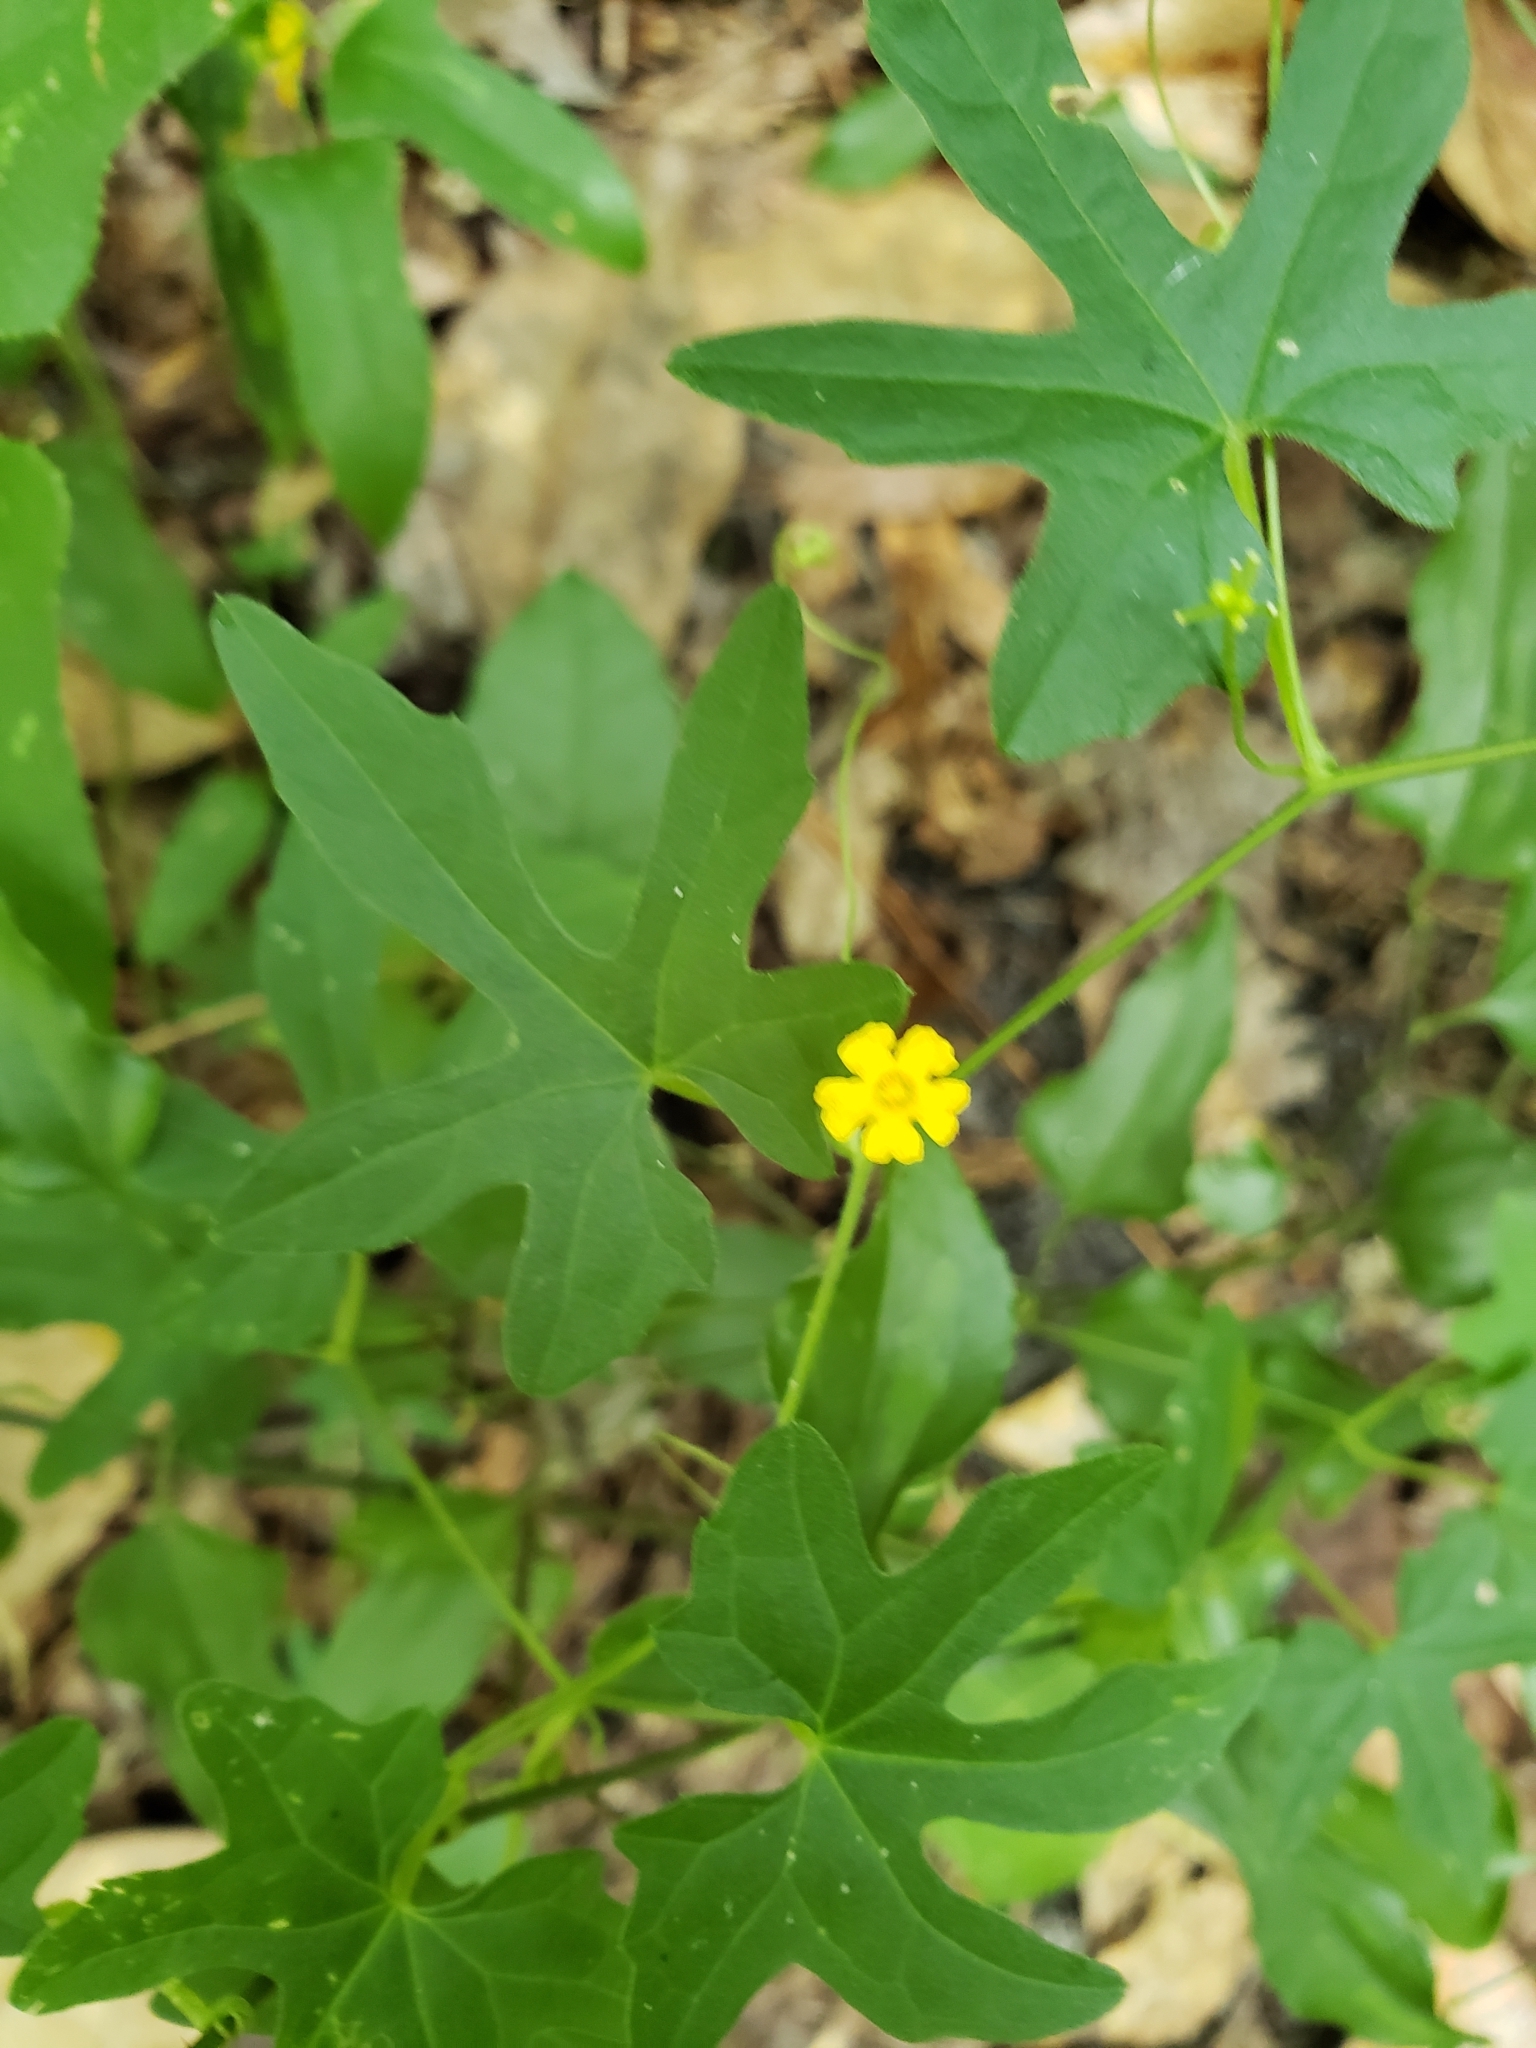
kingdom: Plantae
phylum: Tracheophyta
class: Magnoliopsida
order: Cucurbitales
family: Cucurbitaceae
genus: Melothria
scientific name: Melothria pendula
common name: Creeping-cucumber
